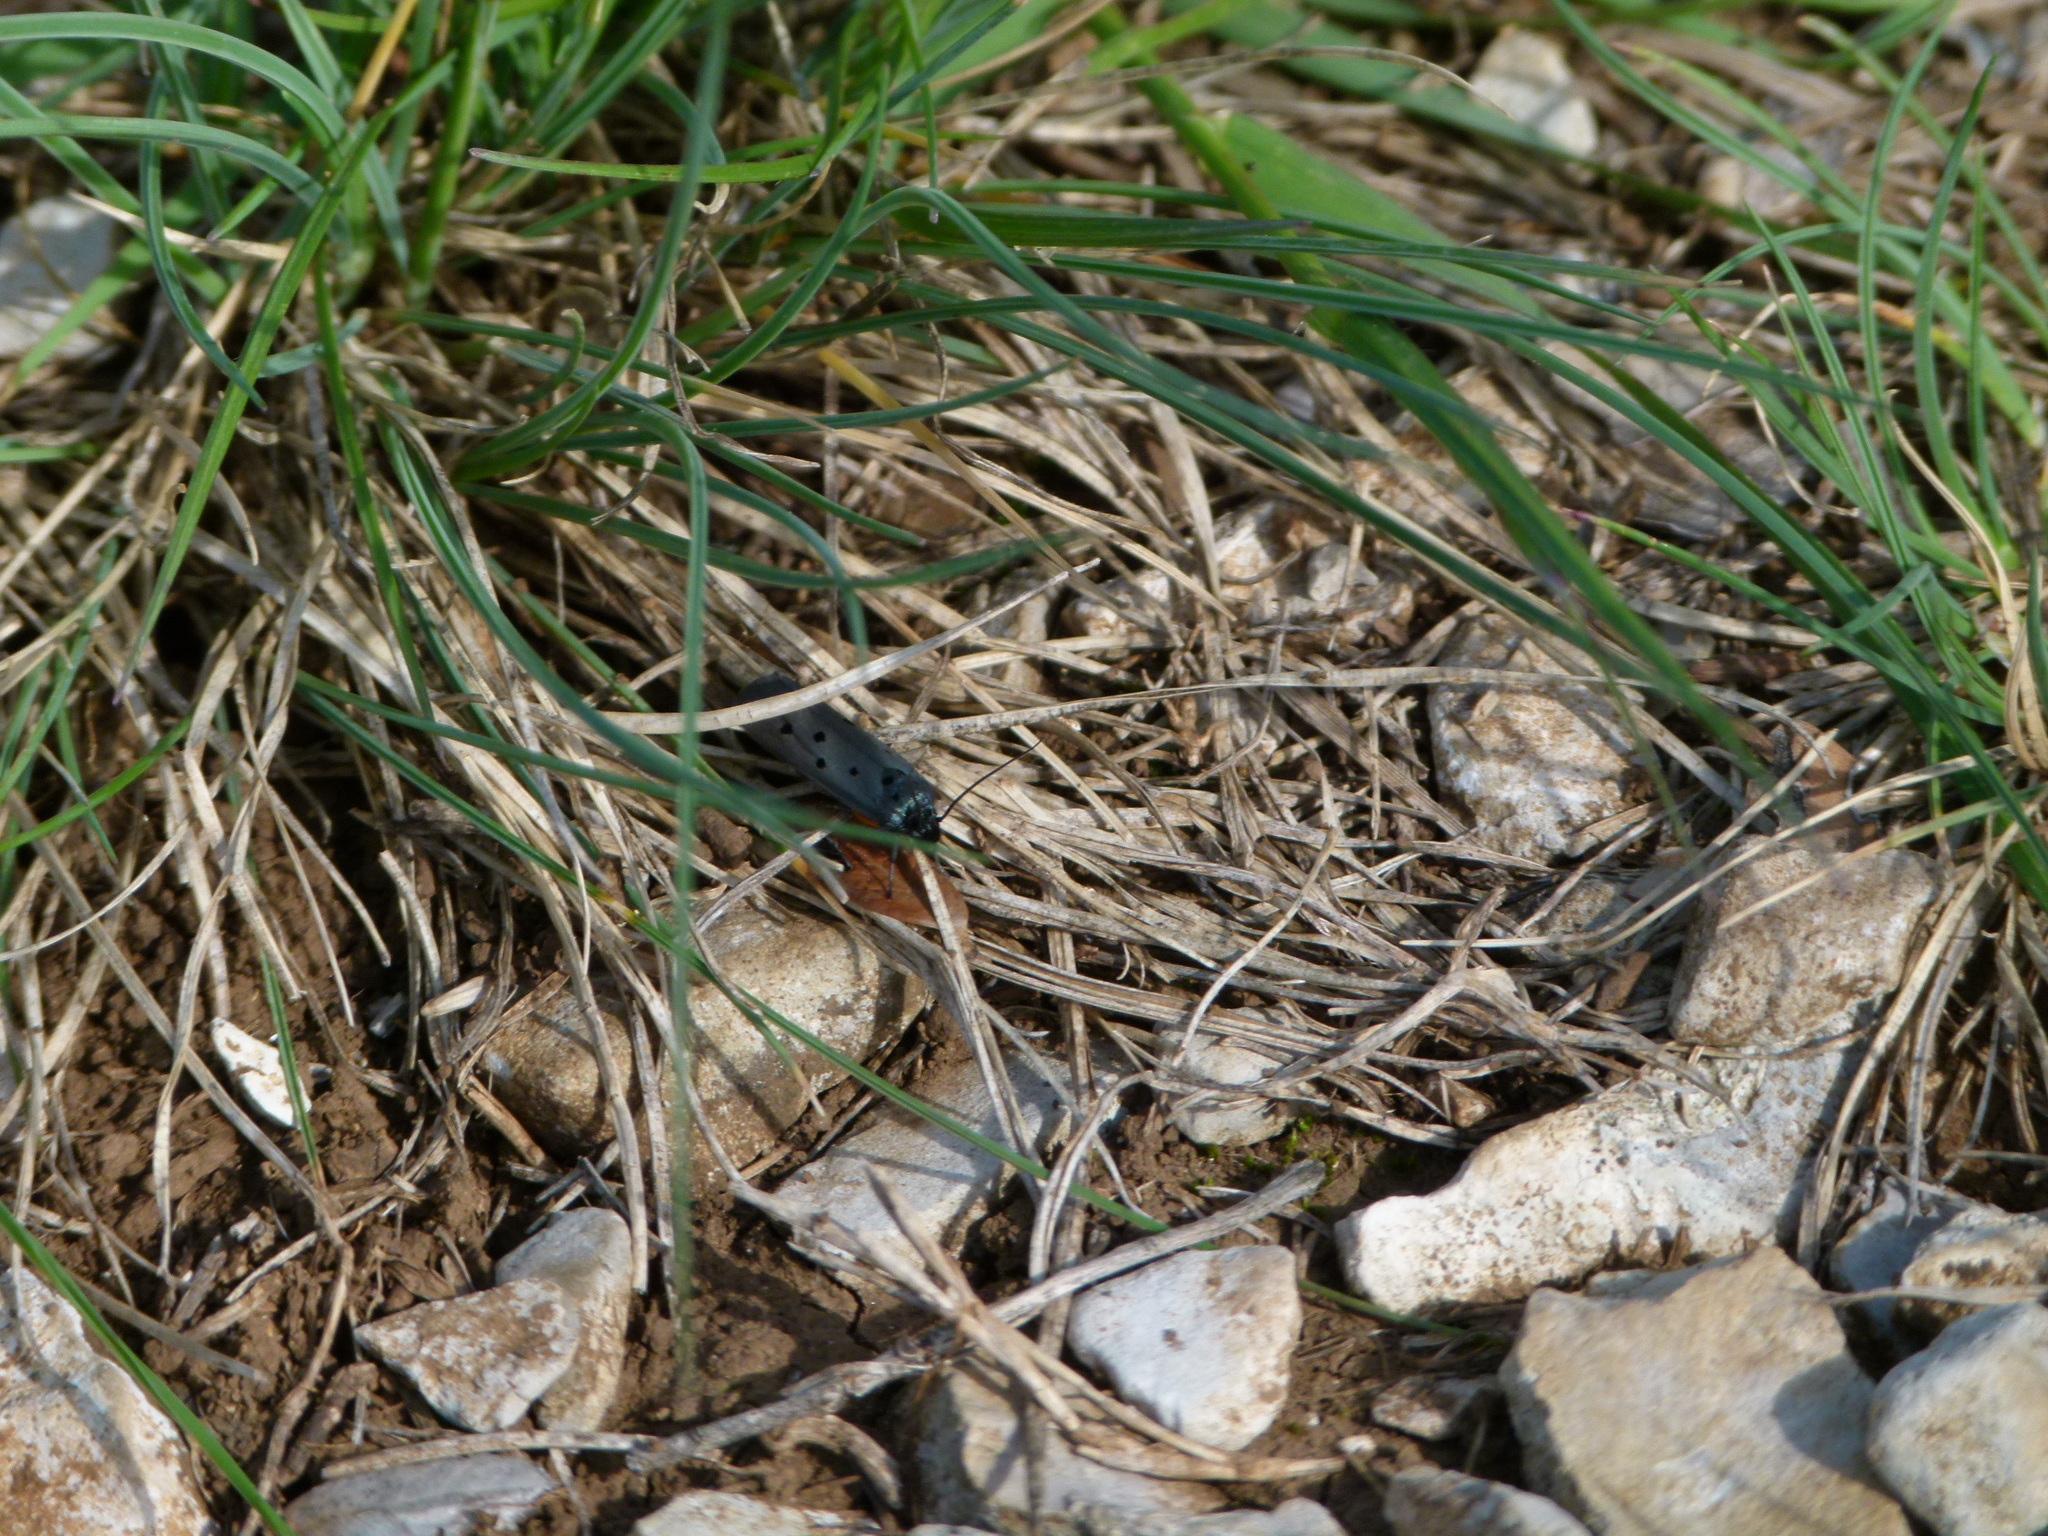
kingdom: Animalia
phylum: Arthropoda
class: Insecta
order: Lepidoptera
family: Ethmiidae
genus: Ethmia
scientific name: Ethmia aurifluella
